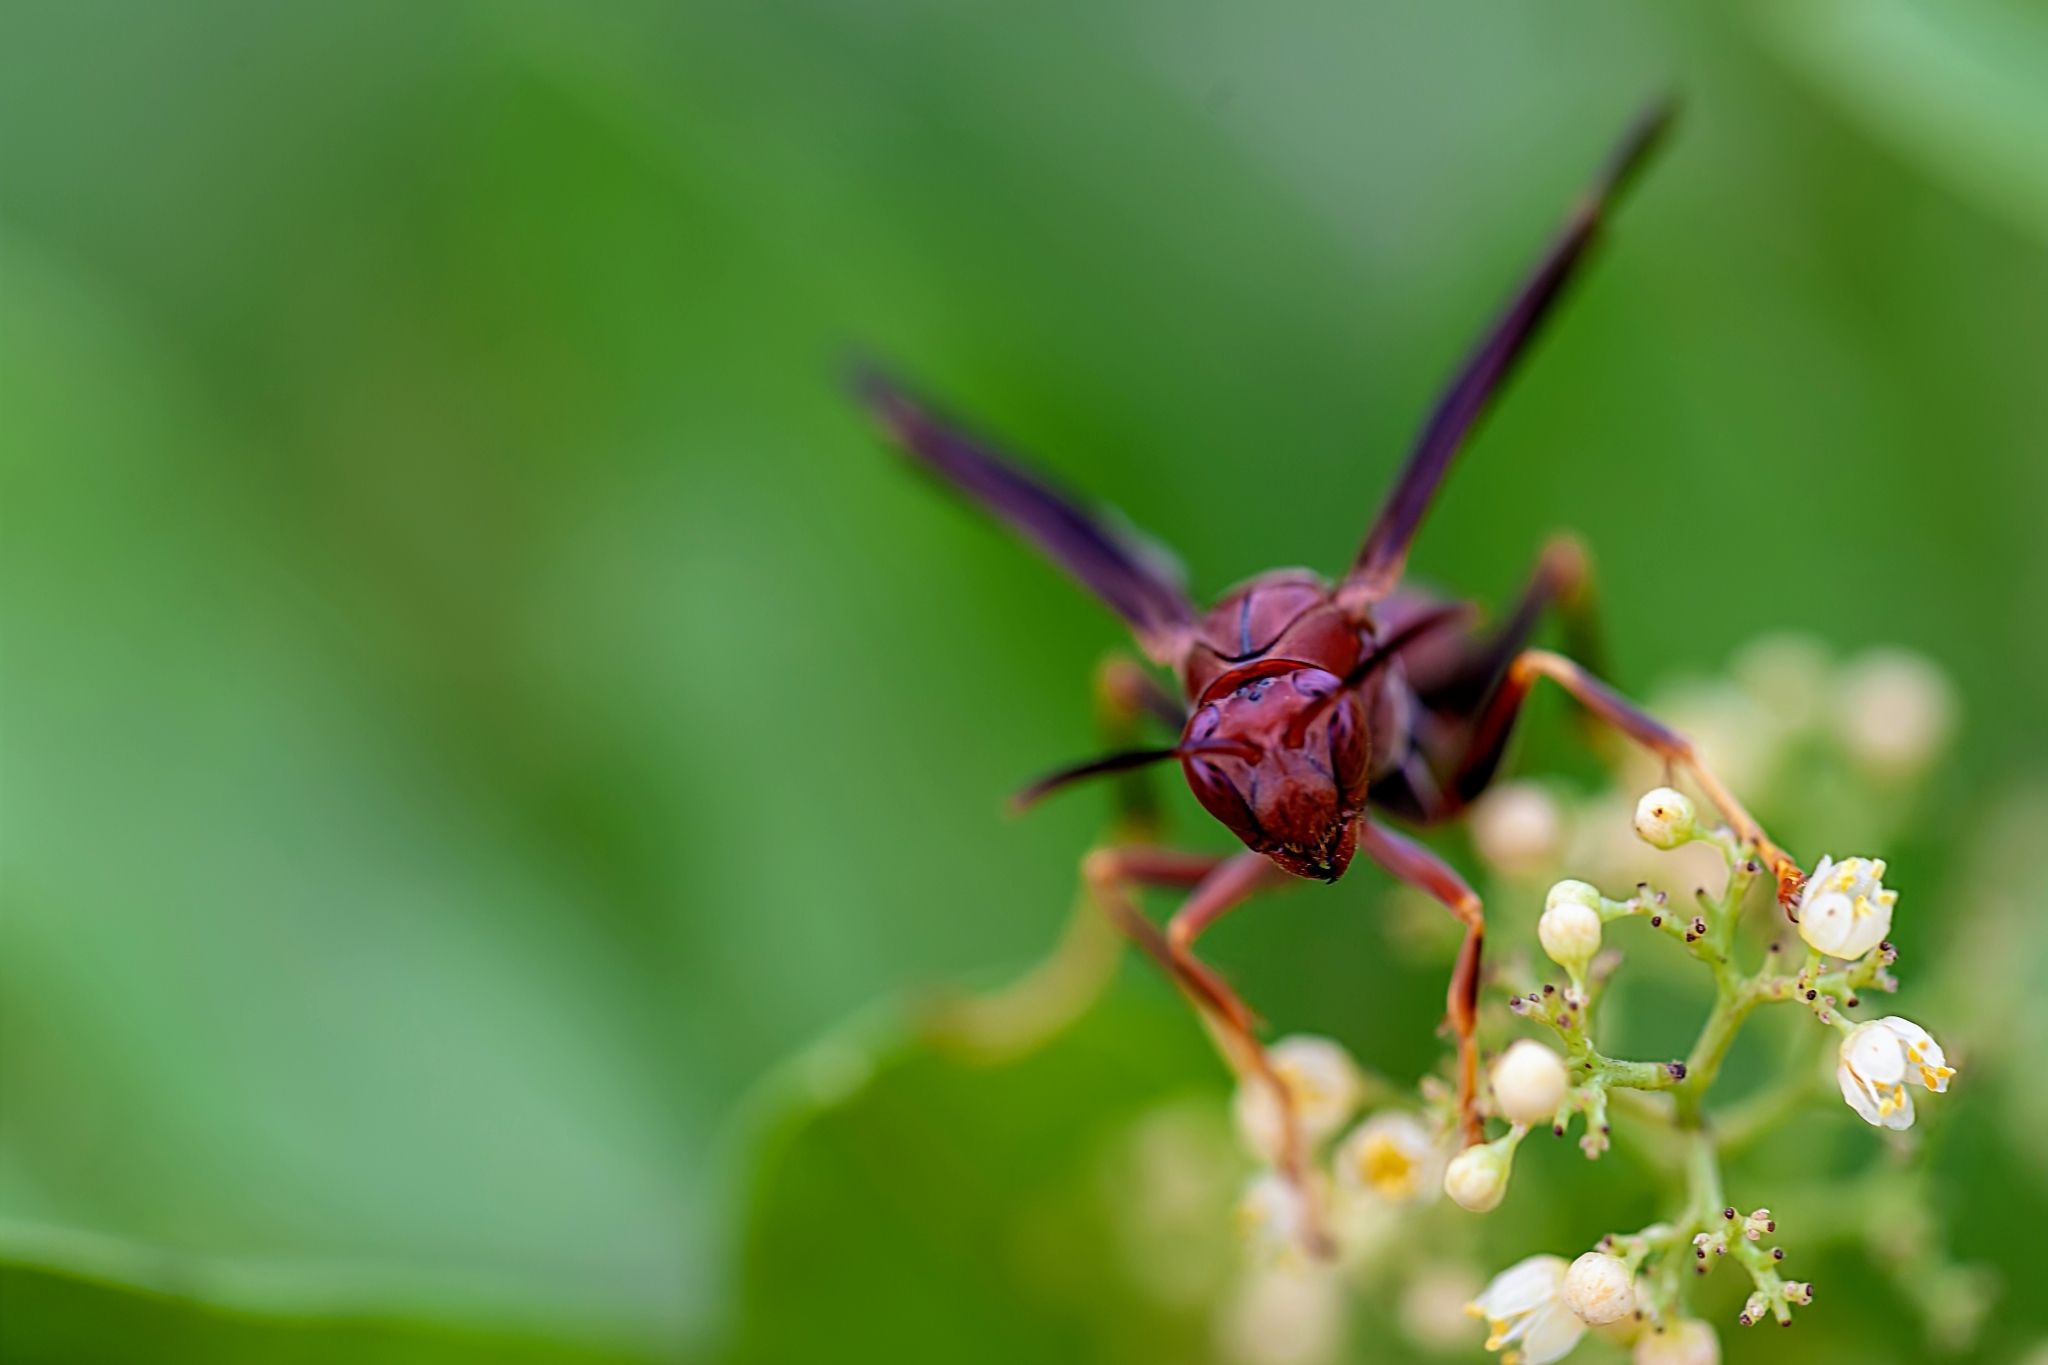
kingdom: Animalia
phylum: Arthropoda
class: Insecta
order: Hymenoptera
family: Eumenidae
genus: Polistes
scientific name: Polistes metricus
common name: Metric paper wasp
